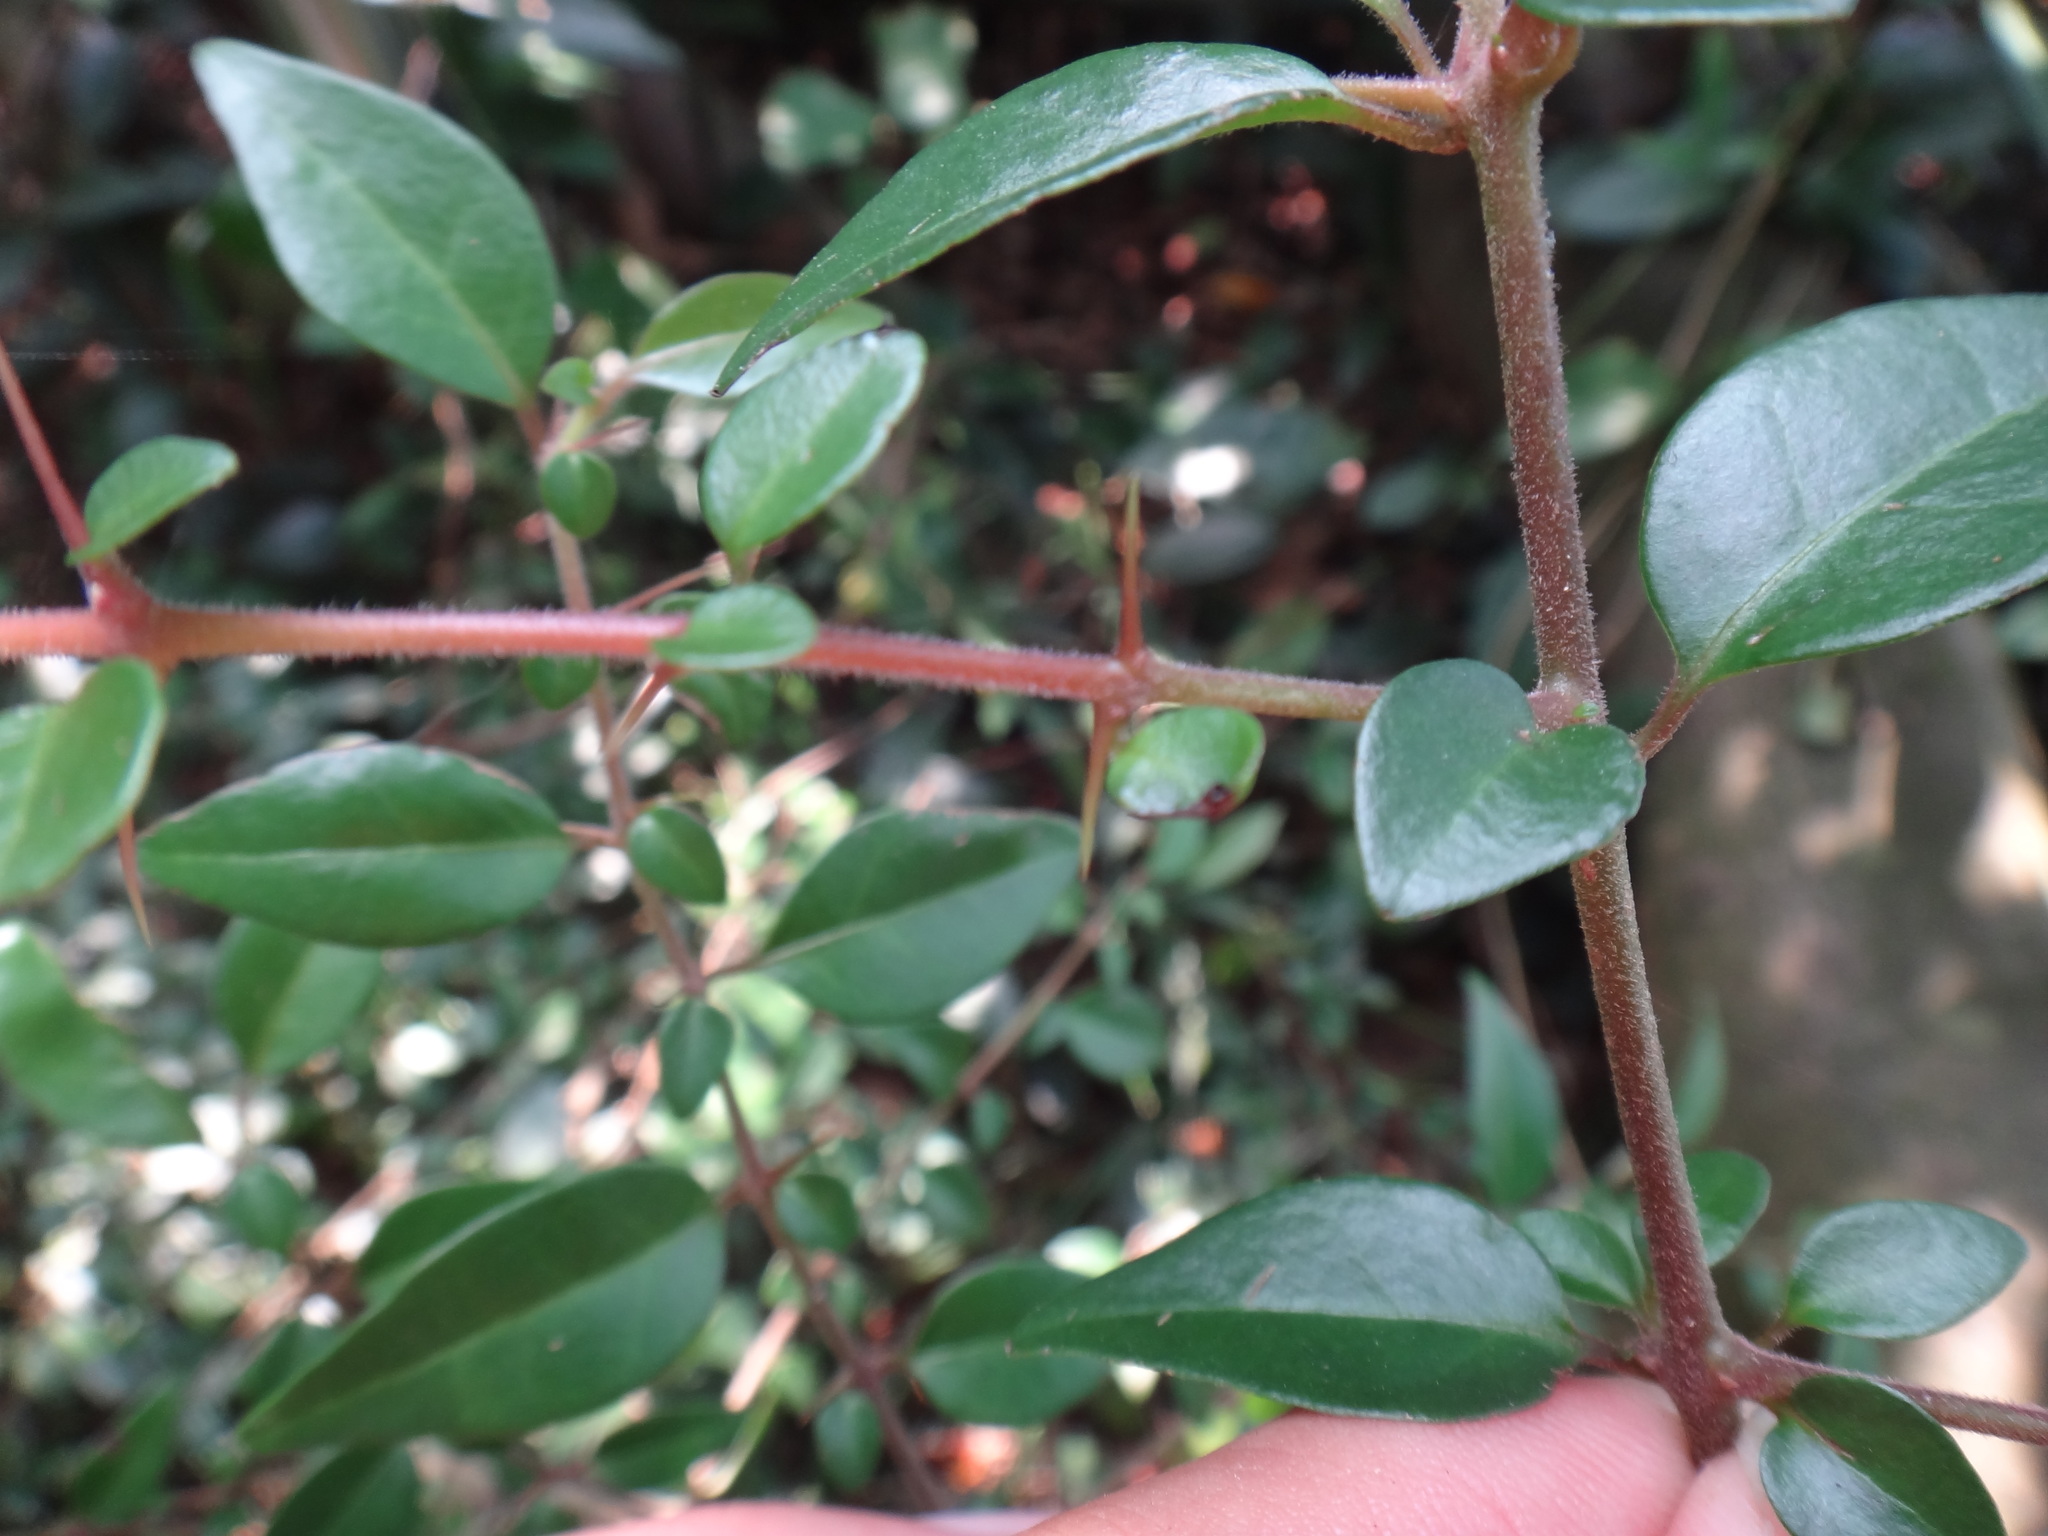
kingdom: Plantae
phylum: Tracheophyta
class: Magnoliopsida
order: Caryophyllales
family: Nyctaginaceae
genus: Pisonia
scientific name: Pisonia aculeata
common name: Cockspur vine
